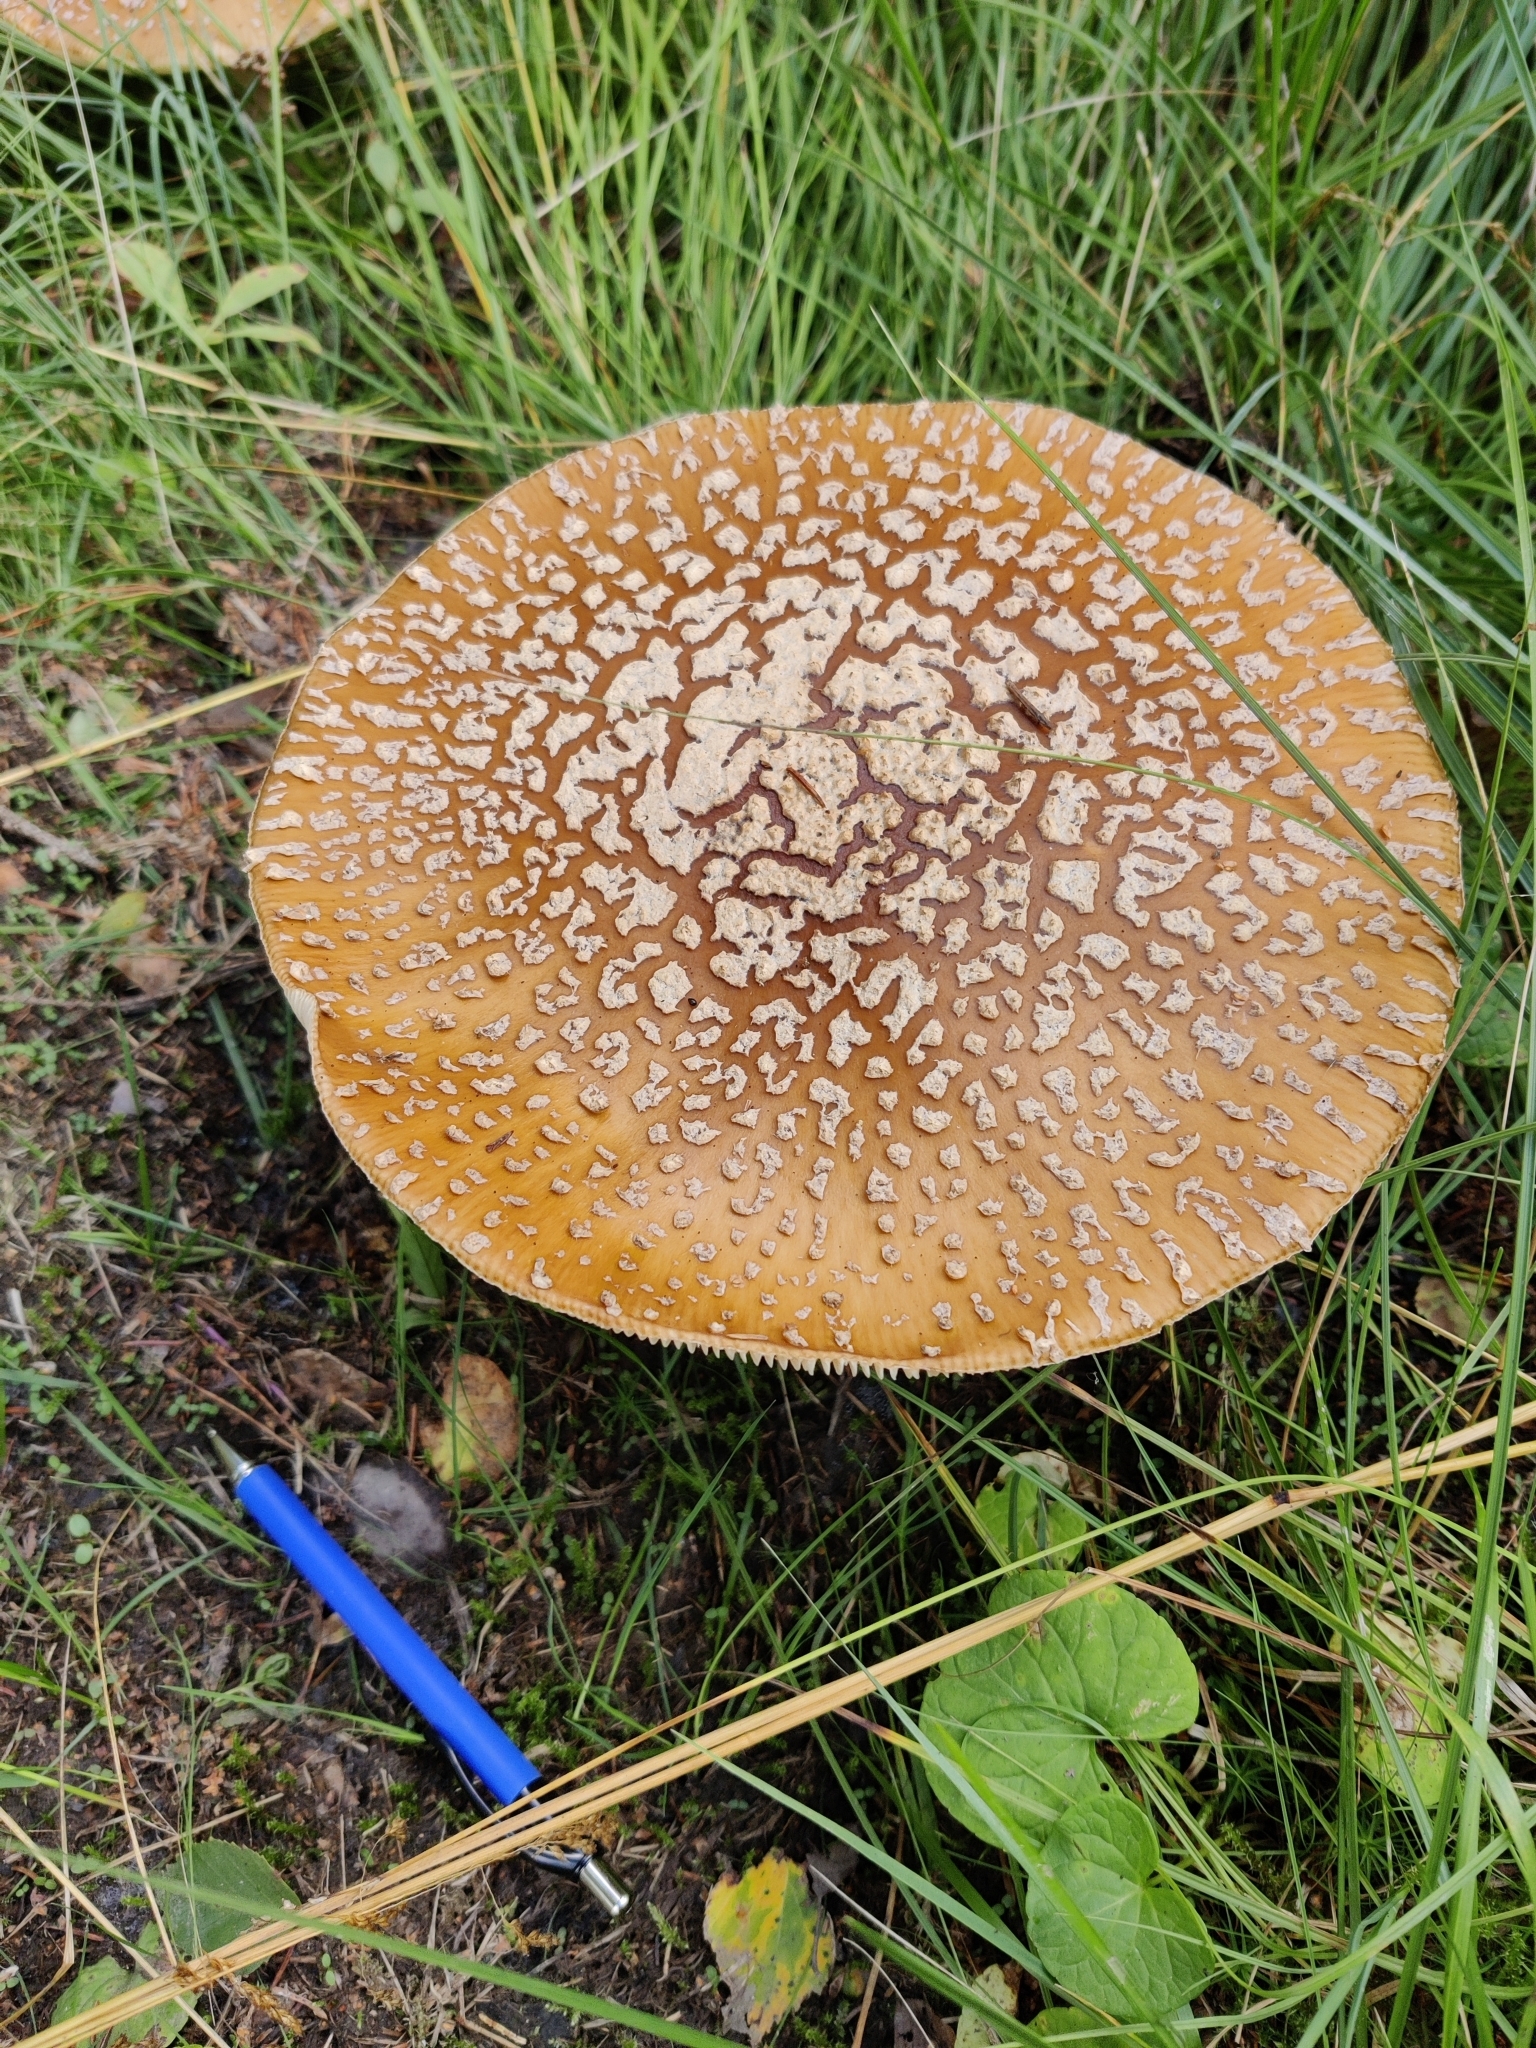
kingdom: Fungi
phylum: Basidiomycota
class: Agaricomycetes
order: Agaricales
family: Amanitaceae
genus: Amanita
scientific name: Amanita regalis
